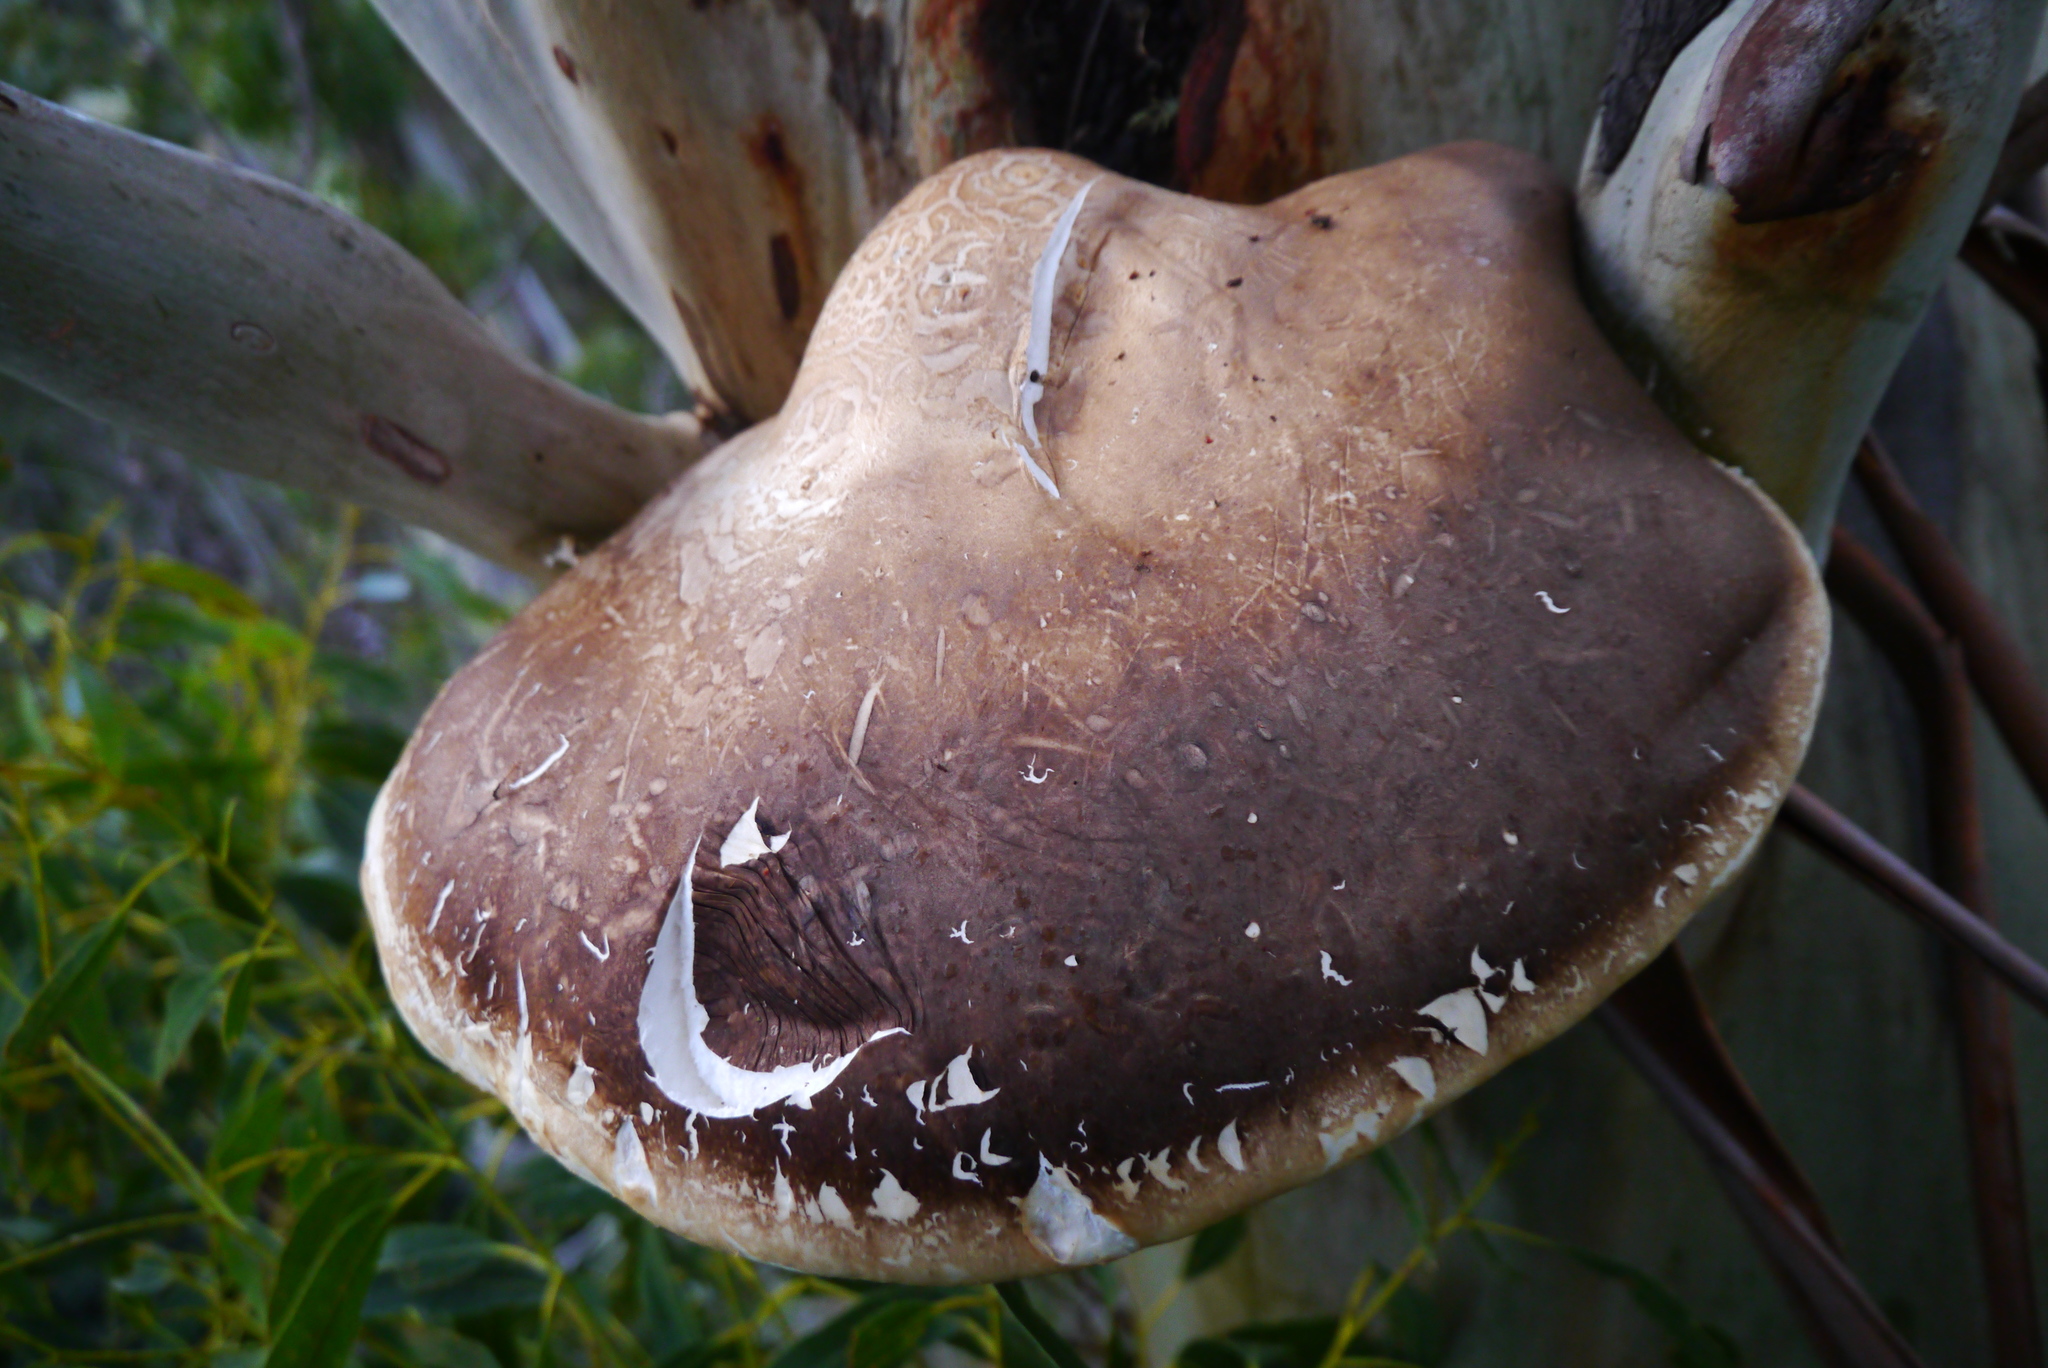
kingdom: Fungi
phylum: Basidiomycota
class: Agaricomycetes
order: Polyporales
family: Laetiporaceae
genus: Laetiporus
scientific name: Laetiporus portentosus
